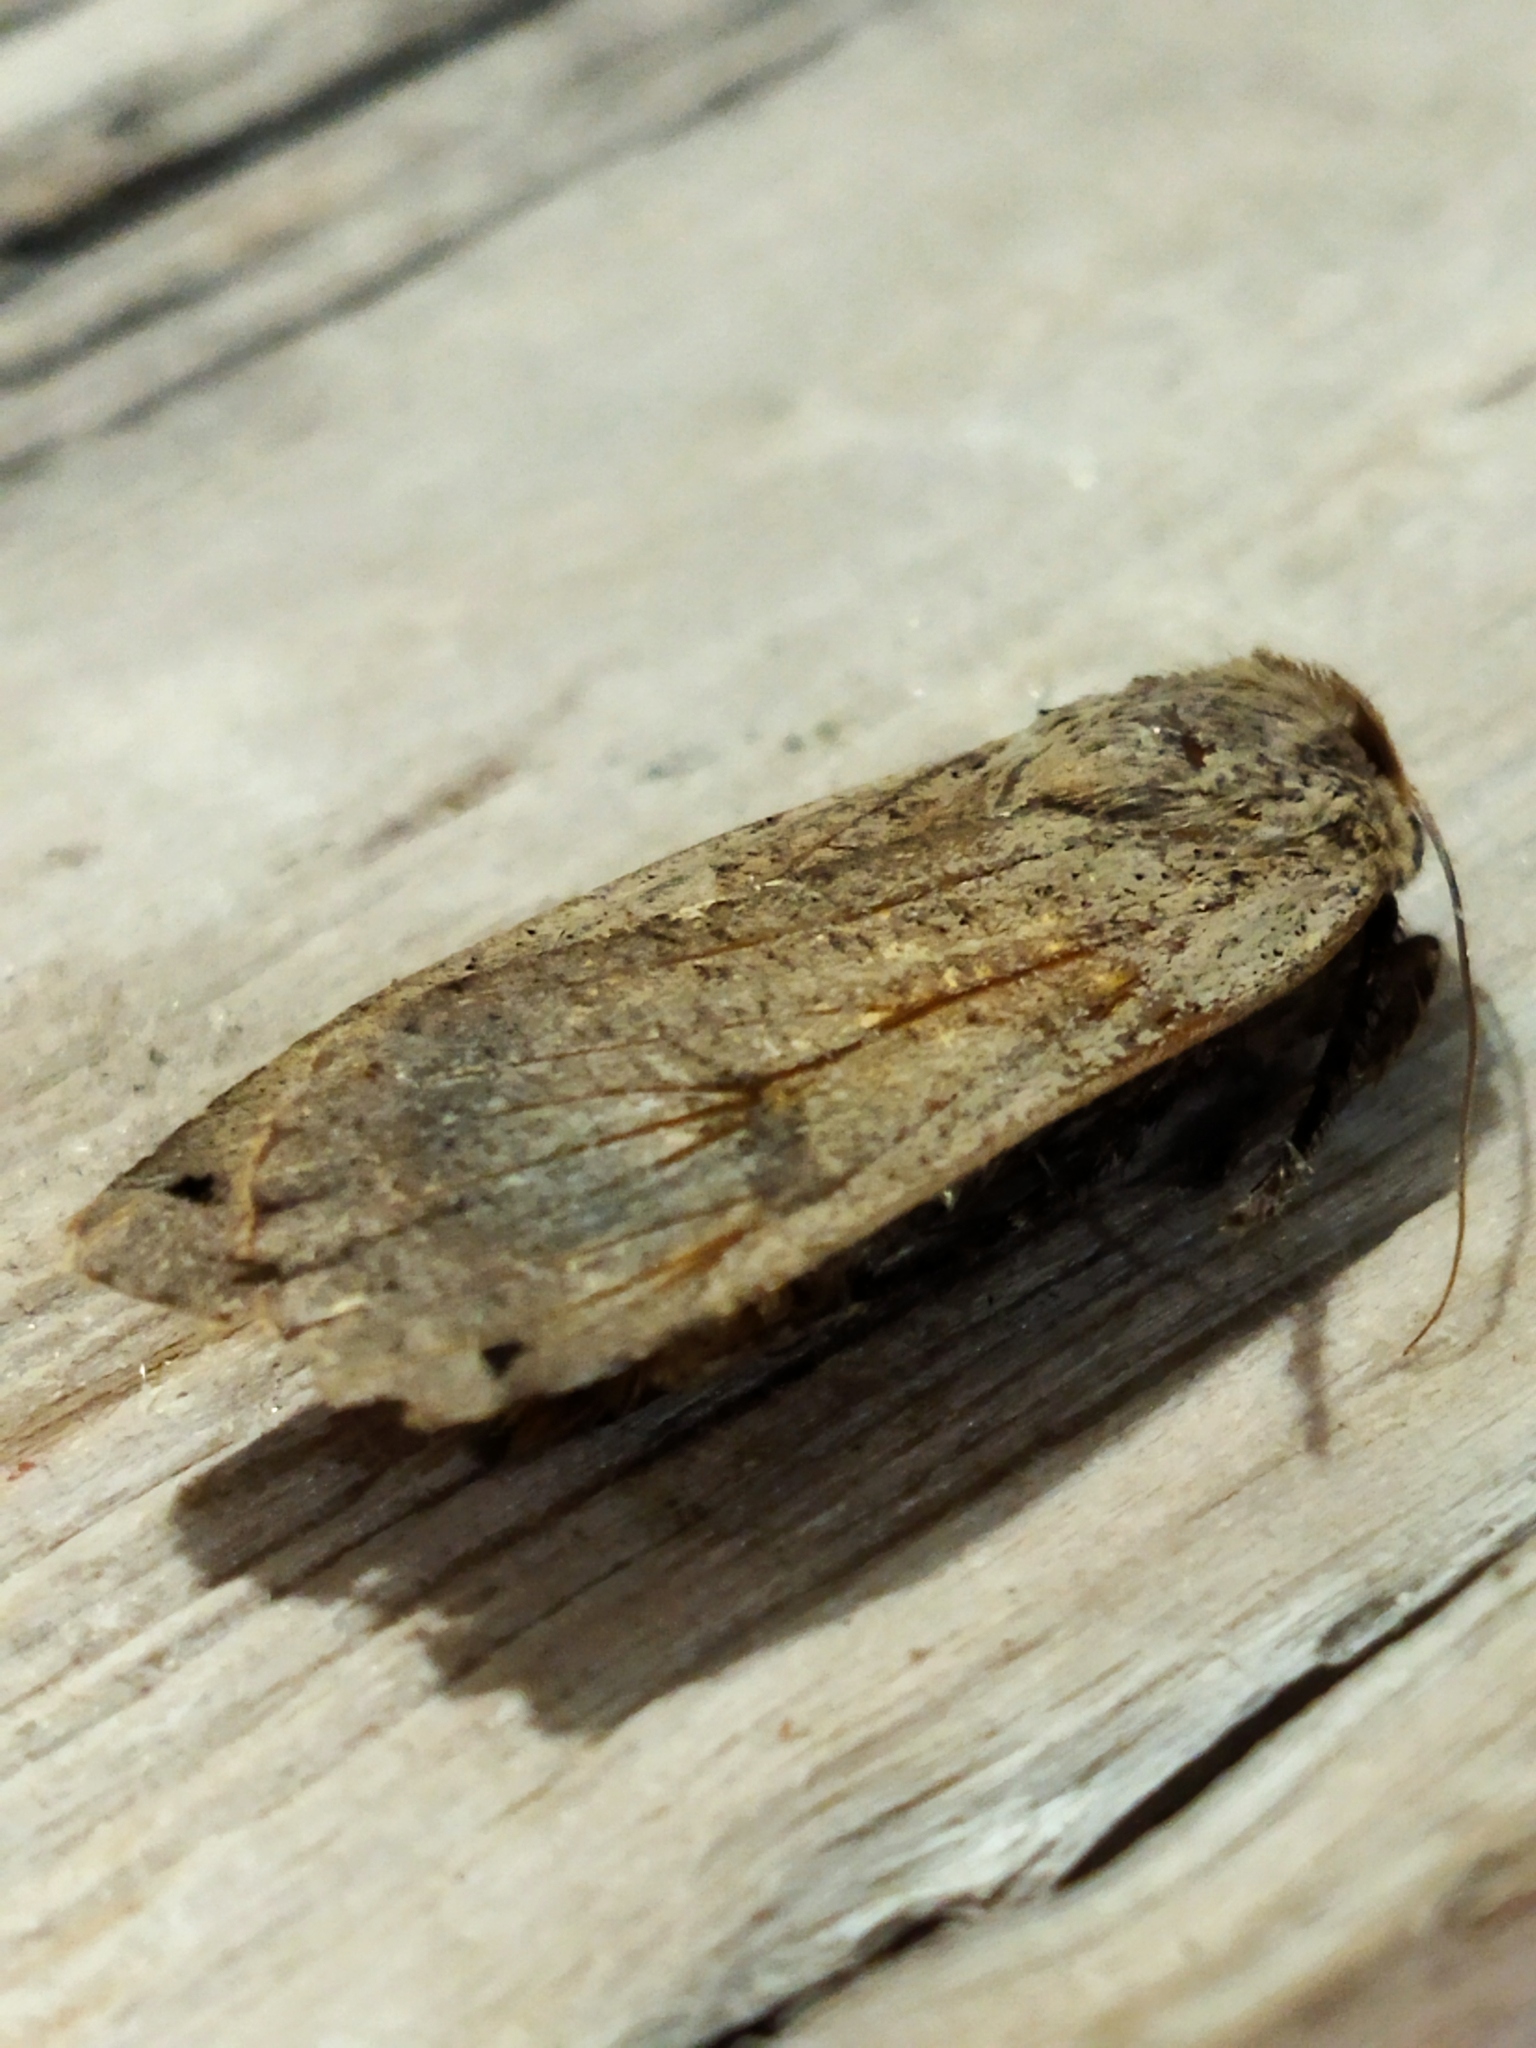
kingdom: Animalia
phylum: Arthropoda
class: Insecta
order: Lepidoptera
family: Noctuidae
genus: Noctua
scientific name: Noctua pronuba
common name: Large yellow underwing
